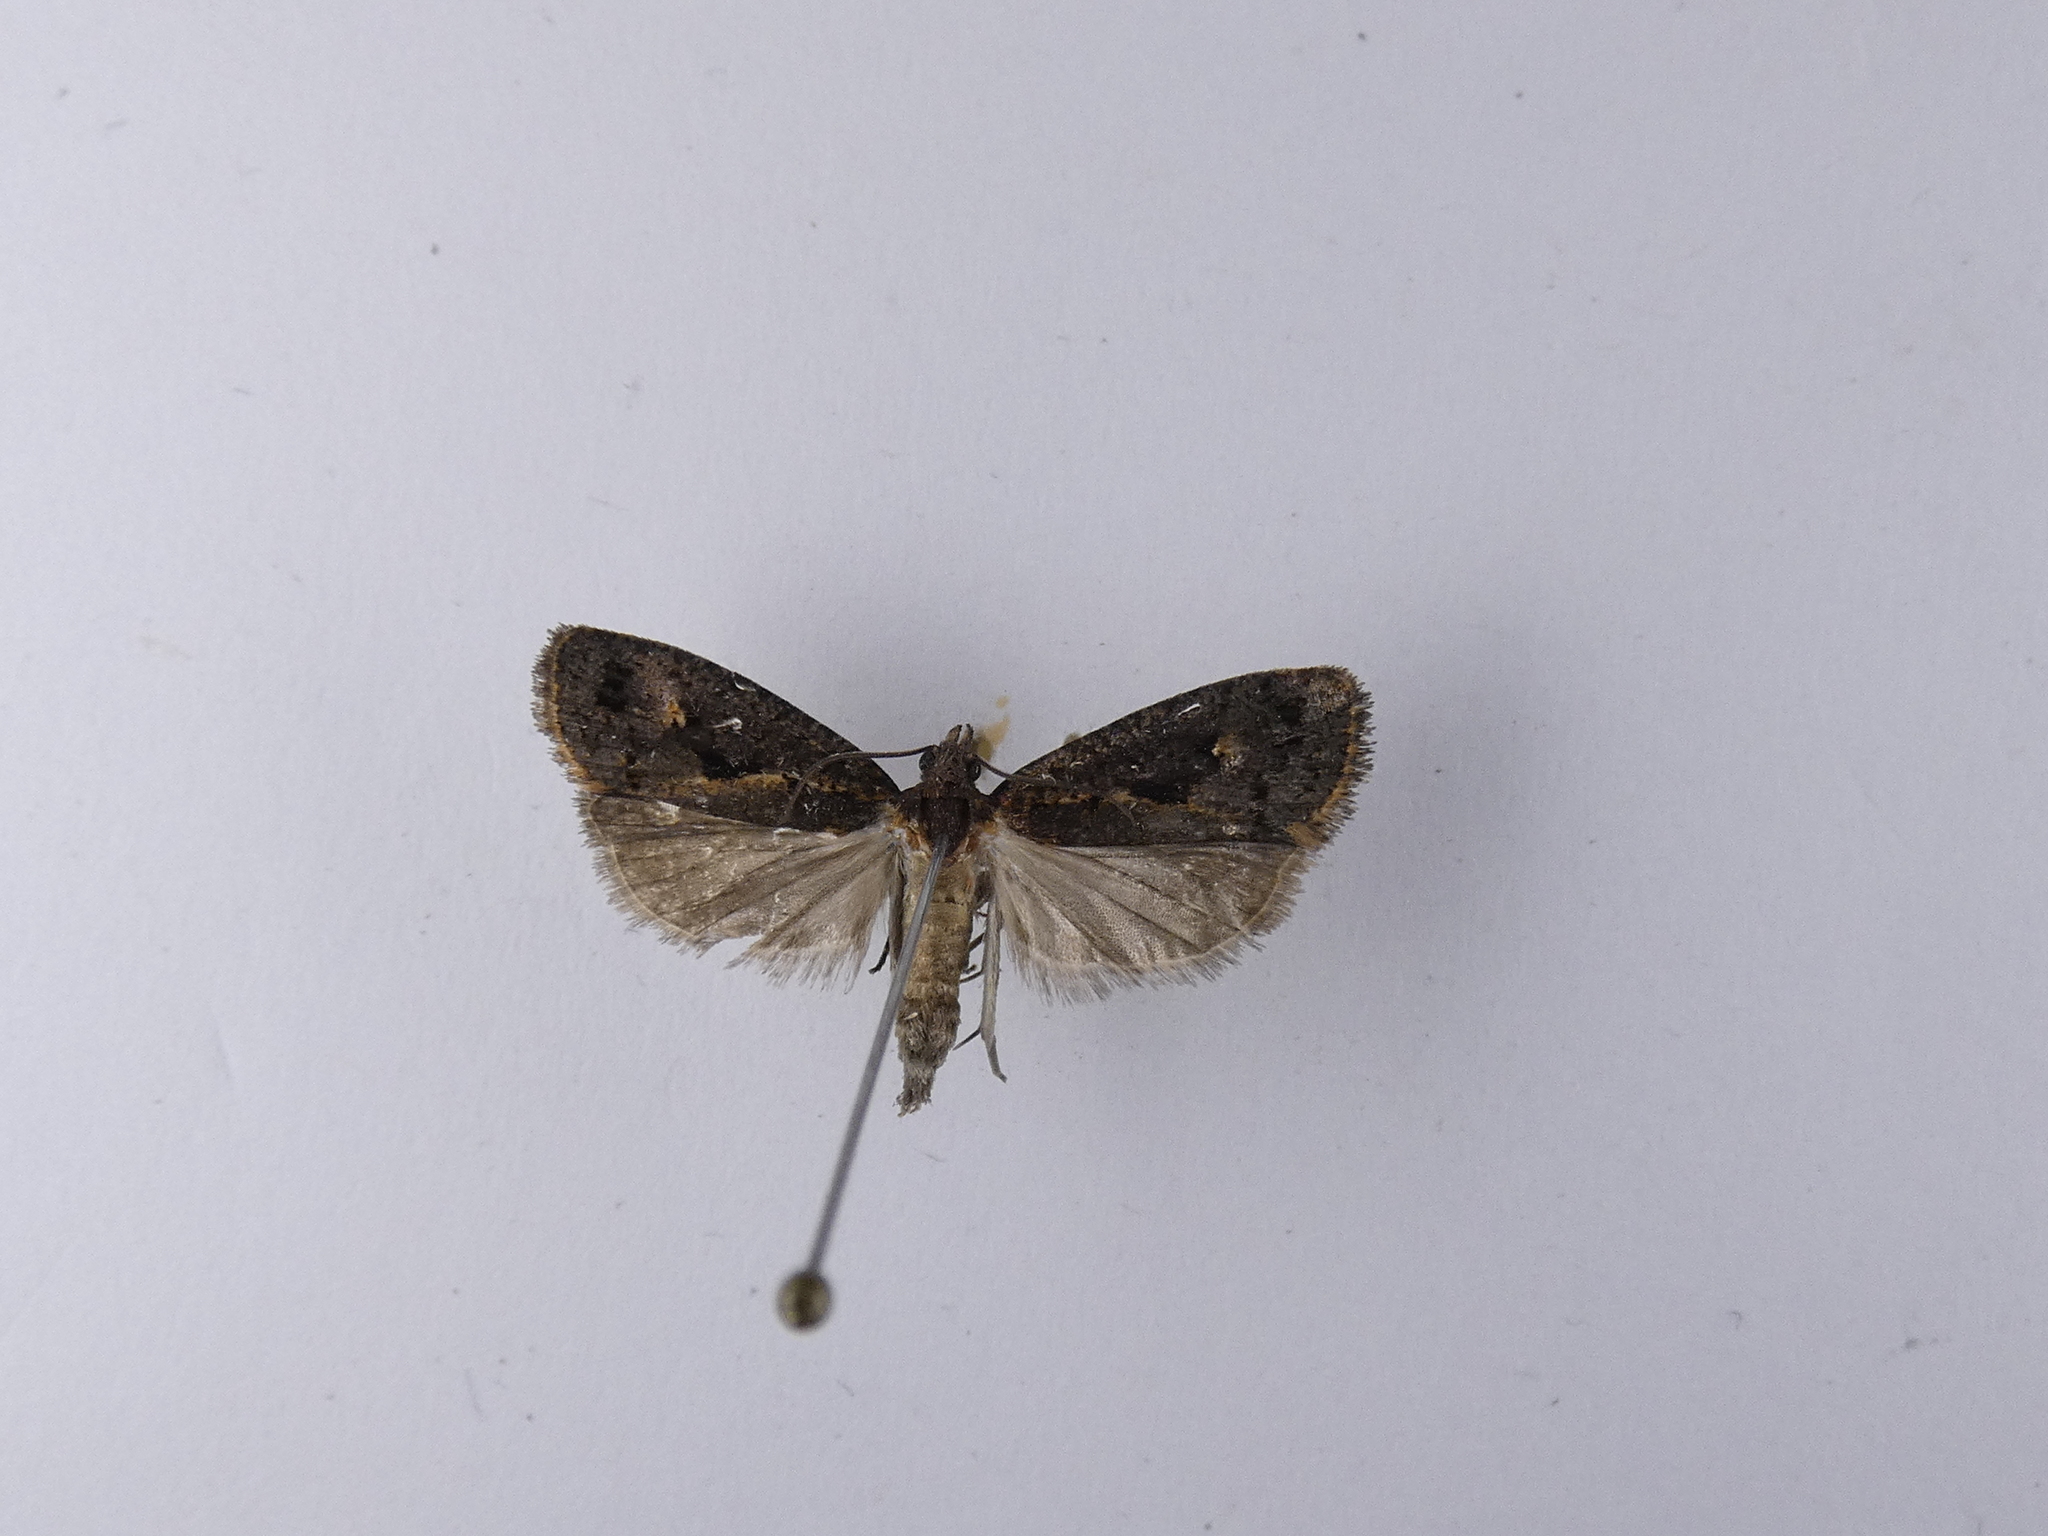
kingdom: Animalia
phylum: Arthropoda
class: Insecta
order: Lepidoptera
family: Tortricidae
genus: Cryptaspasma
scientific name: Cryptaspasma querula
